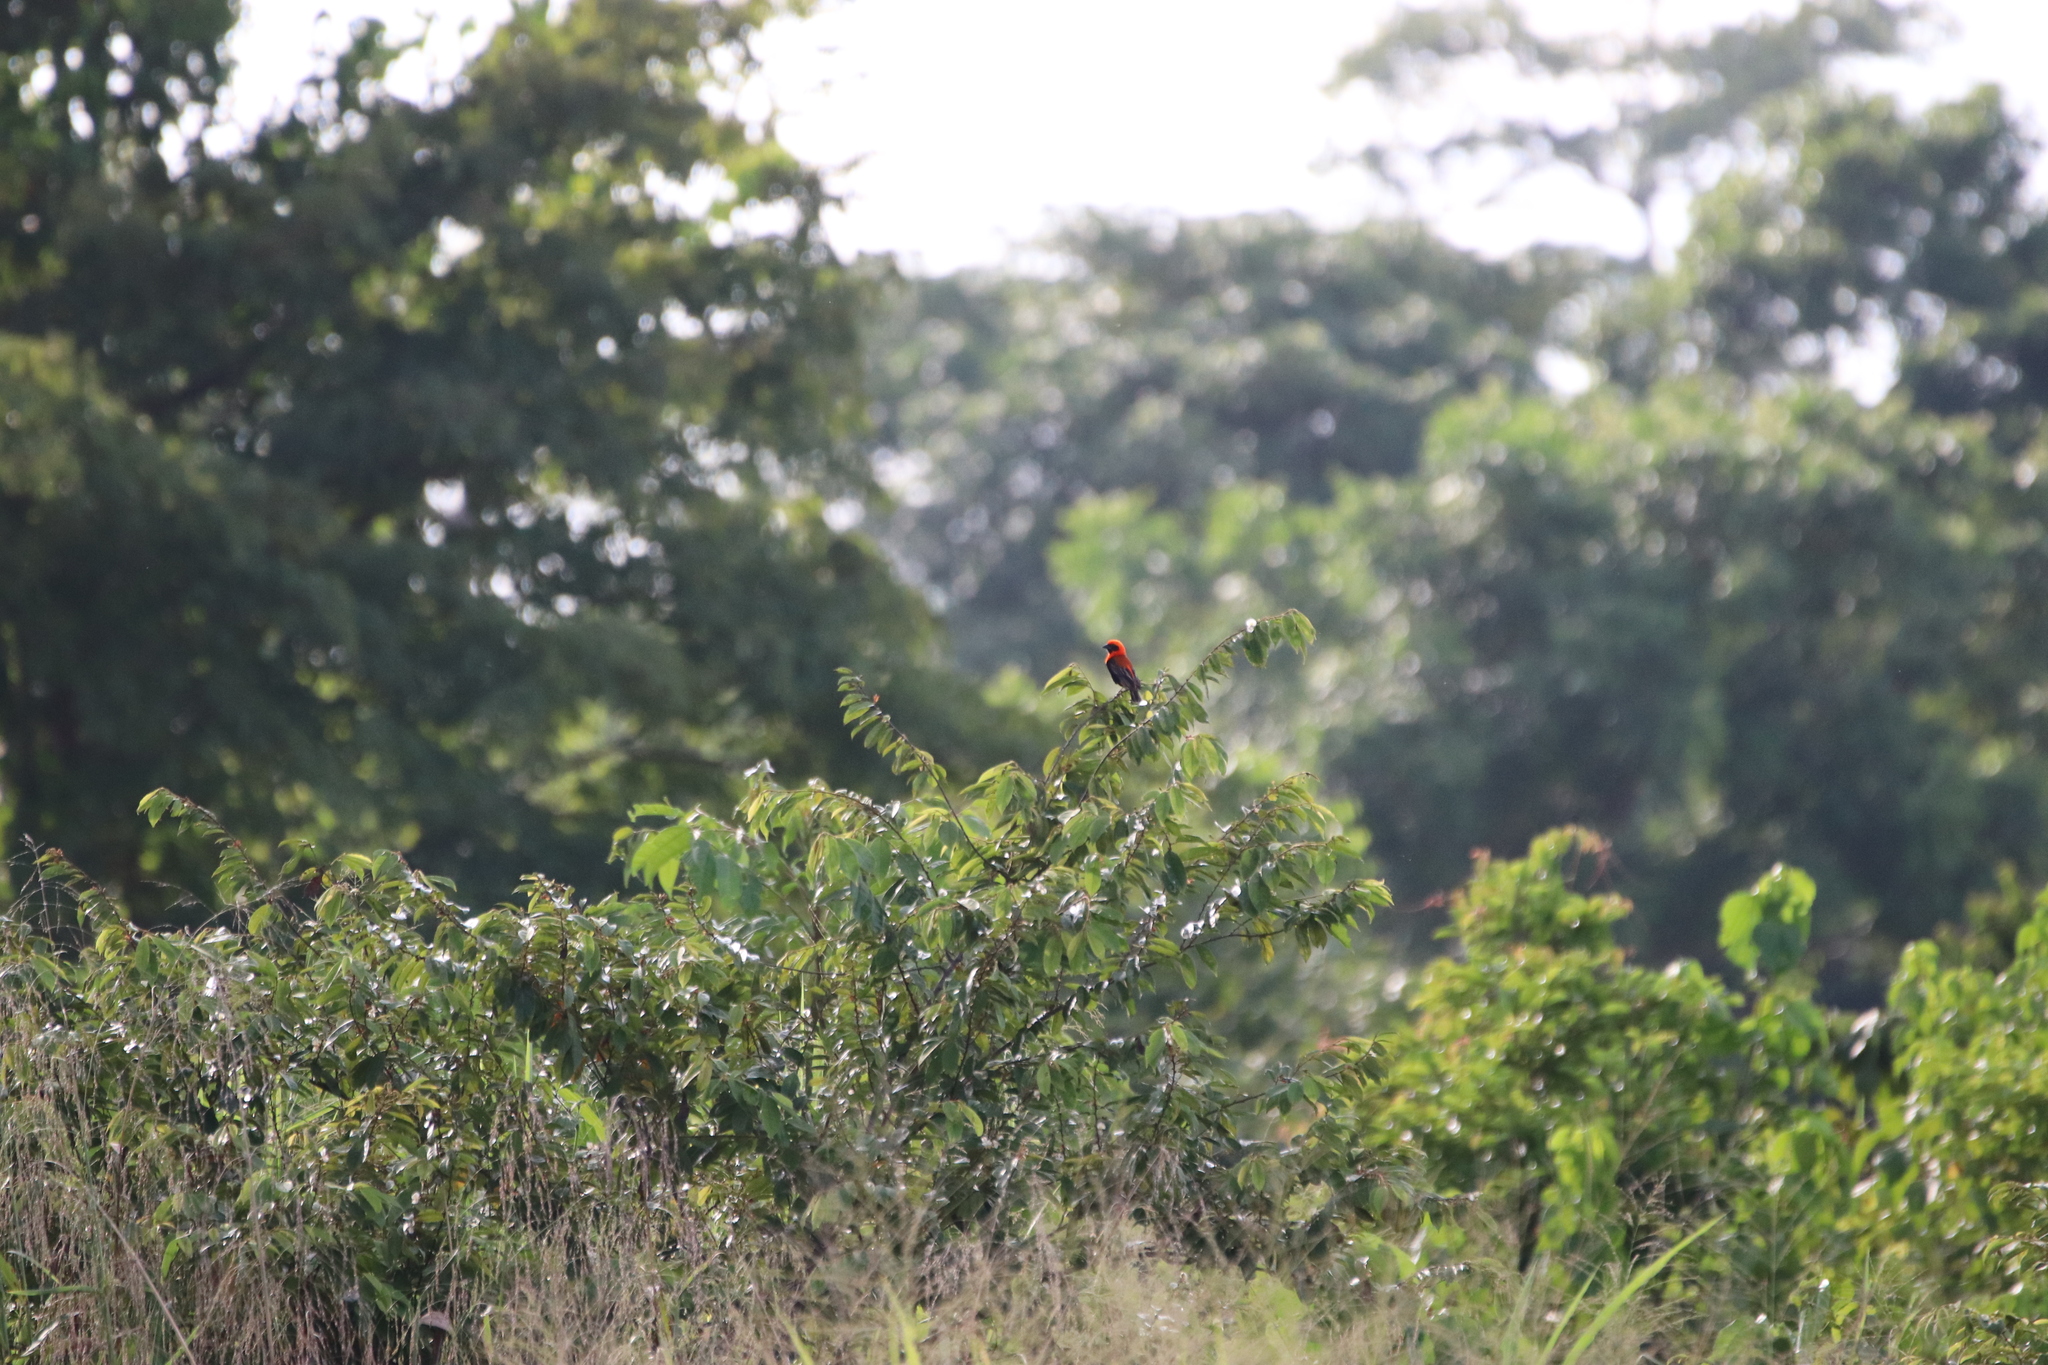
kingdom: Animalia
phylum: Chordata
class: Aves
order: Passeriformes
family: Ploceidae
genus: Euplectes
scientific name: Euplectes hordeaceus
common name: Black-winged red bishop
